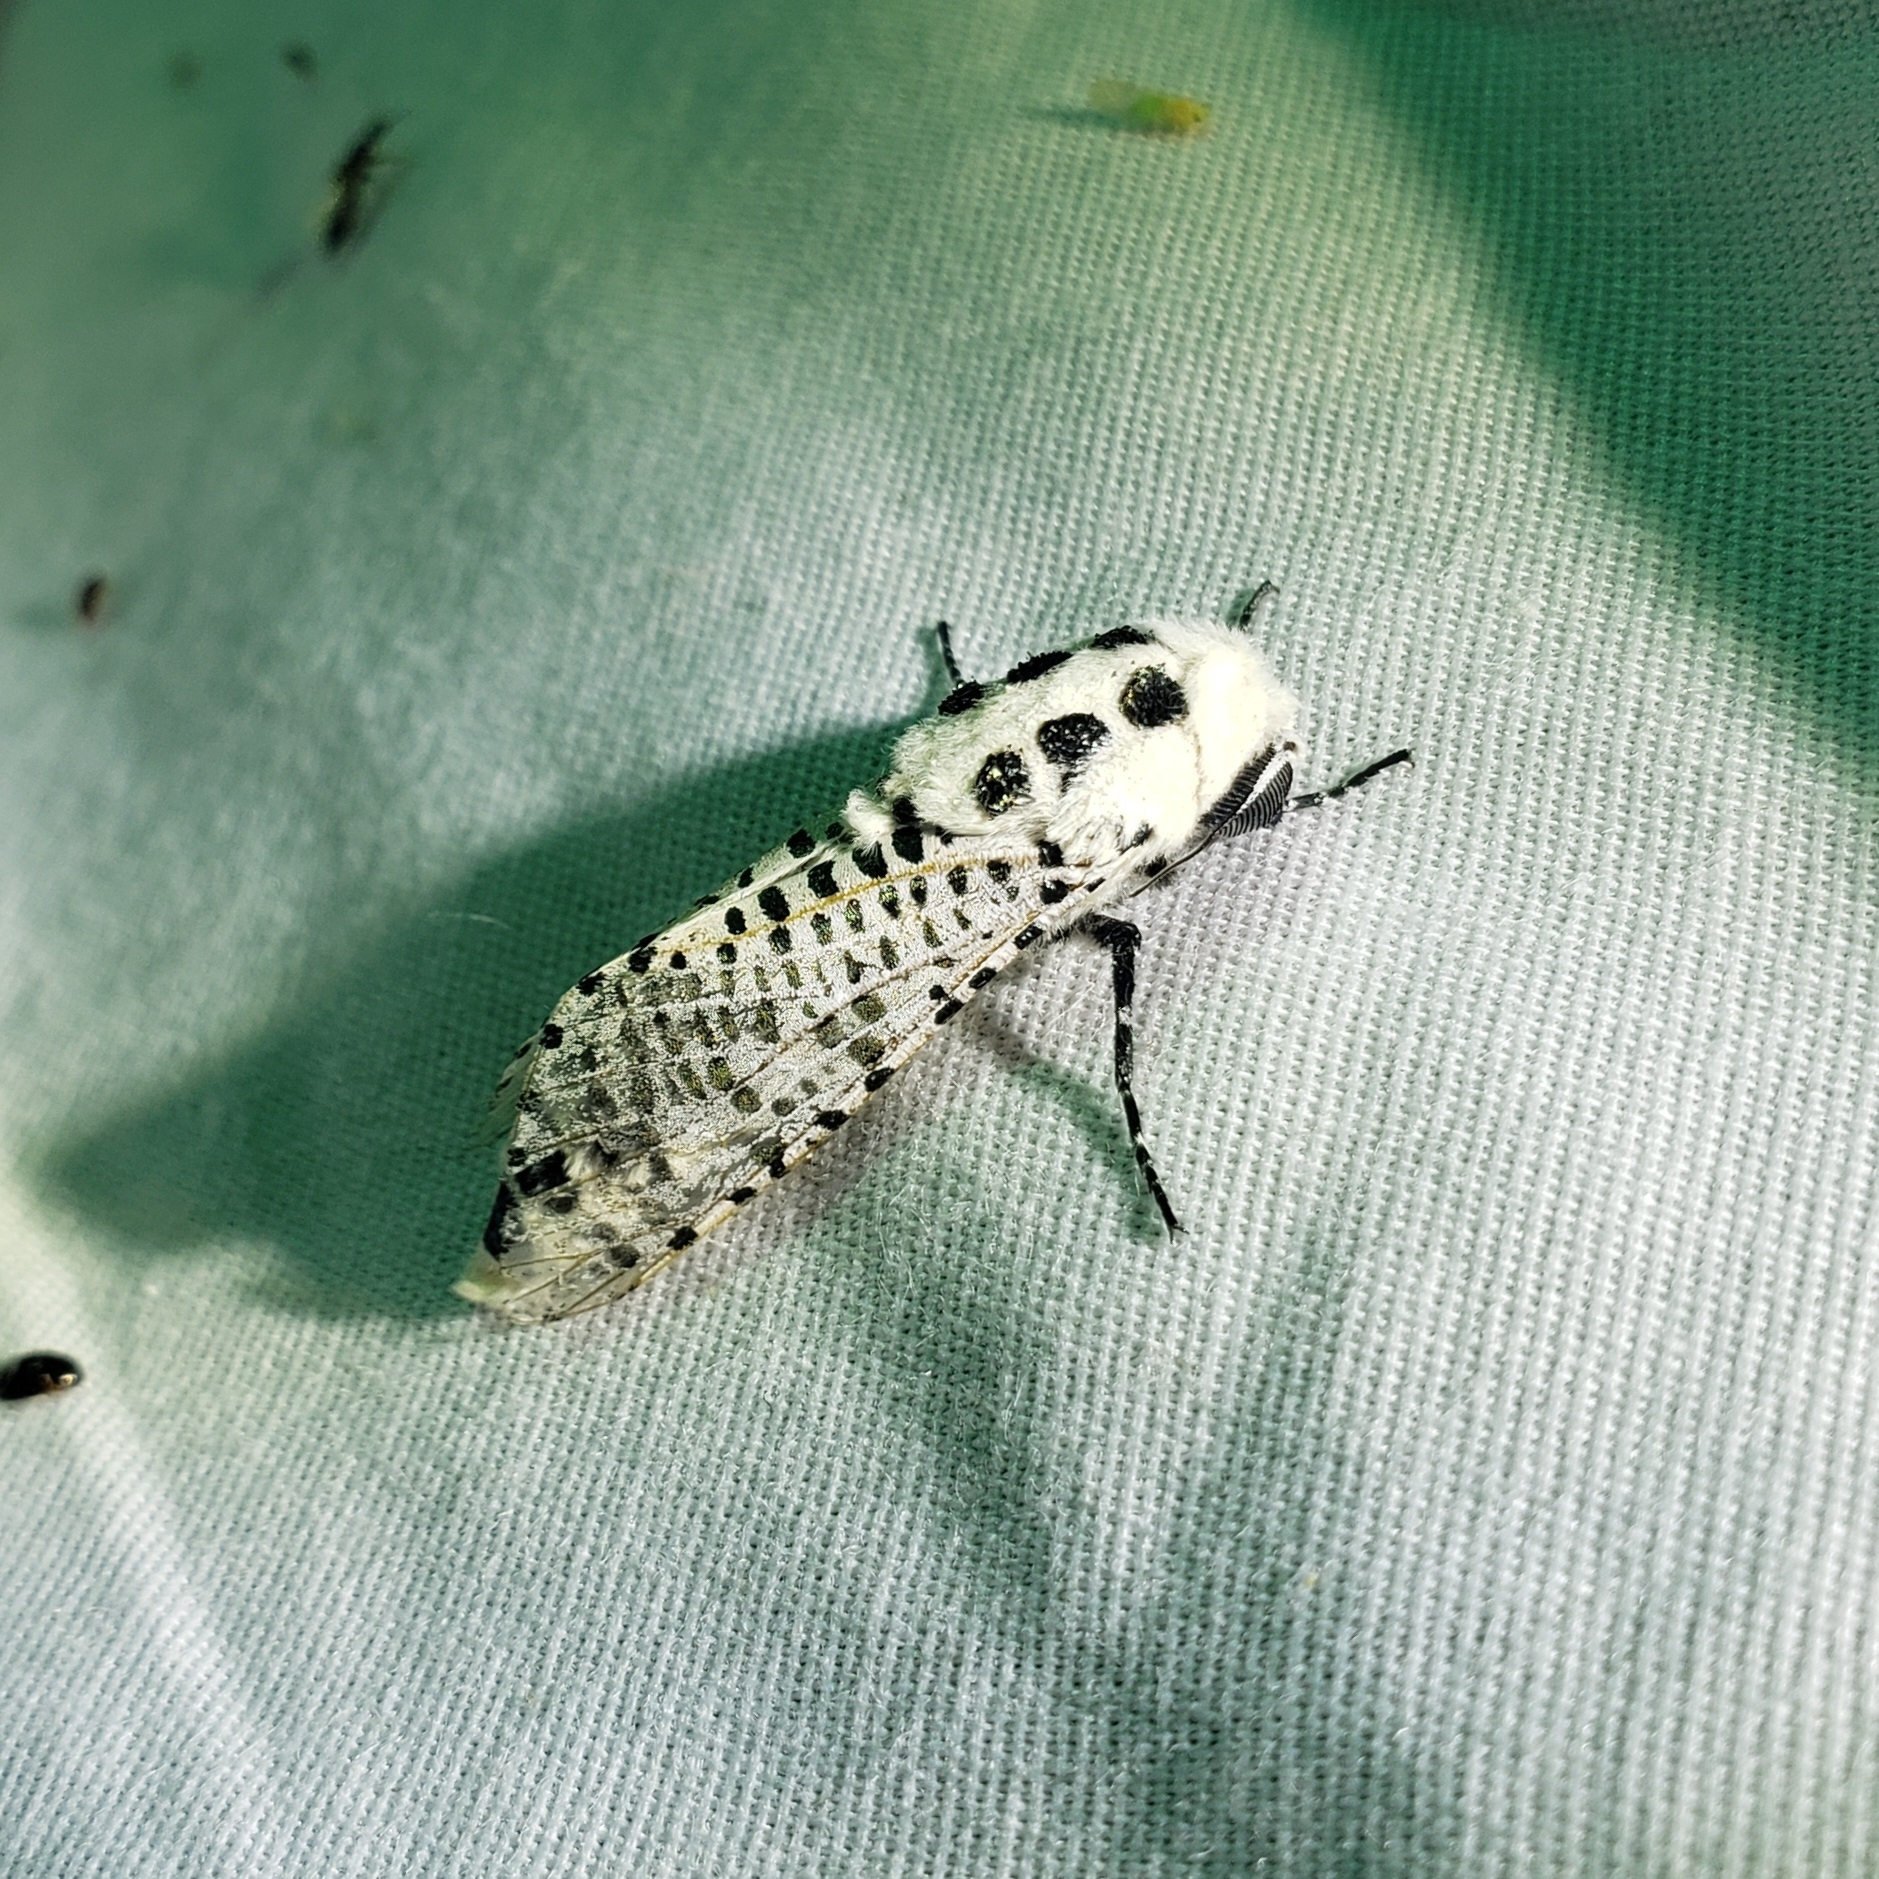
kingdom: Animalia
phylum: Arthropoda
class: Insecta
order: Lepidoptera
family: Cossidae
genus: Zeuzera
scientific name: Zeuzera pyrina
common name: Leopard moth
